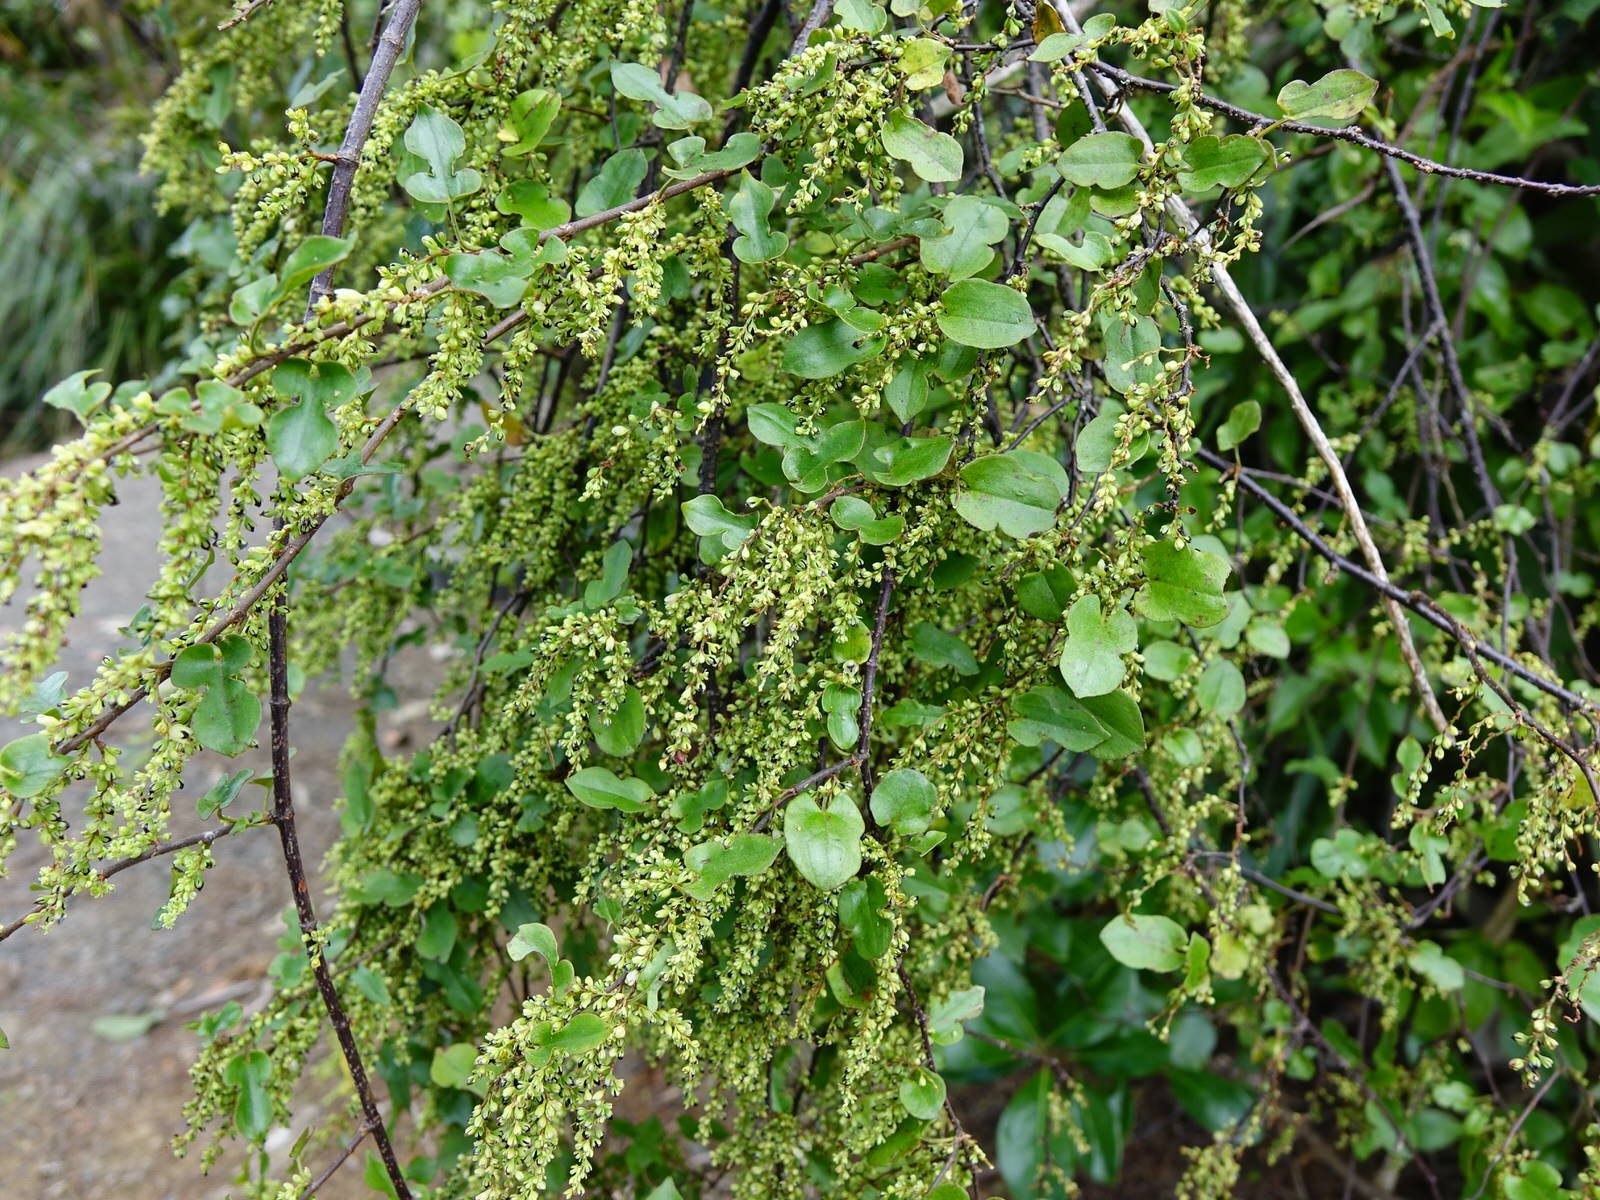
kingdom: Plantae
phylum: Tracheophyta
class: Magnoliopsida
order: Caryophyllales
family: Polygonaceae
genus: Muehlenbeckia
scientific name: Muehlenbeckia australis
